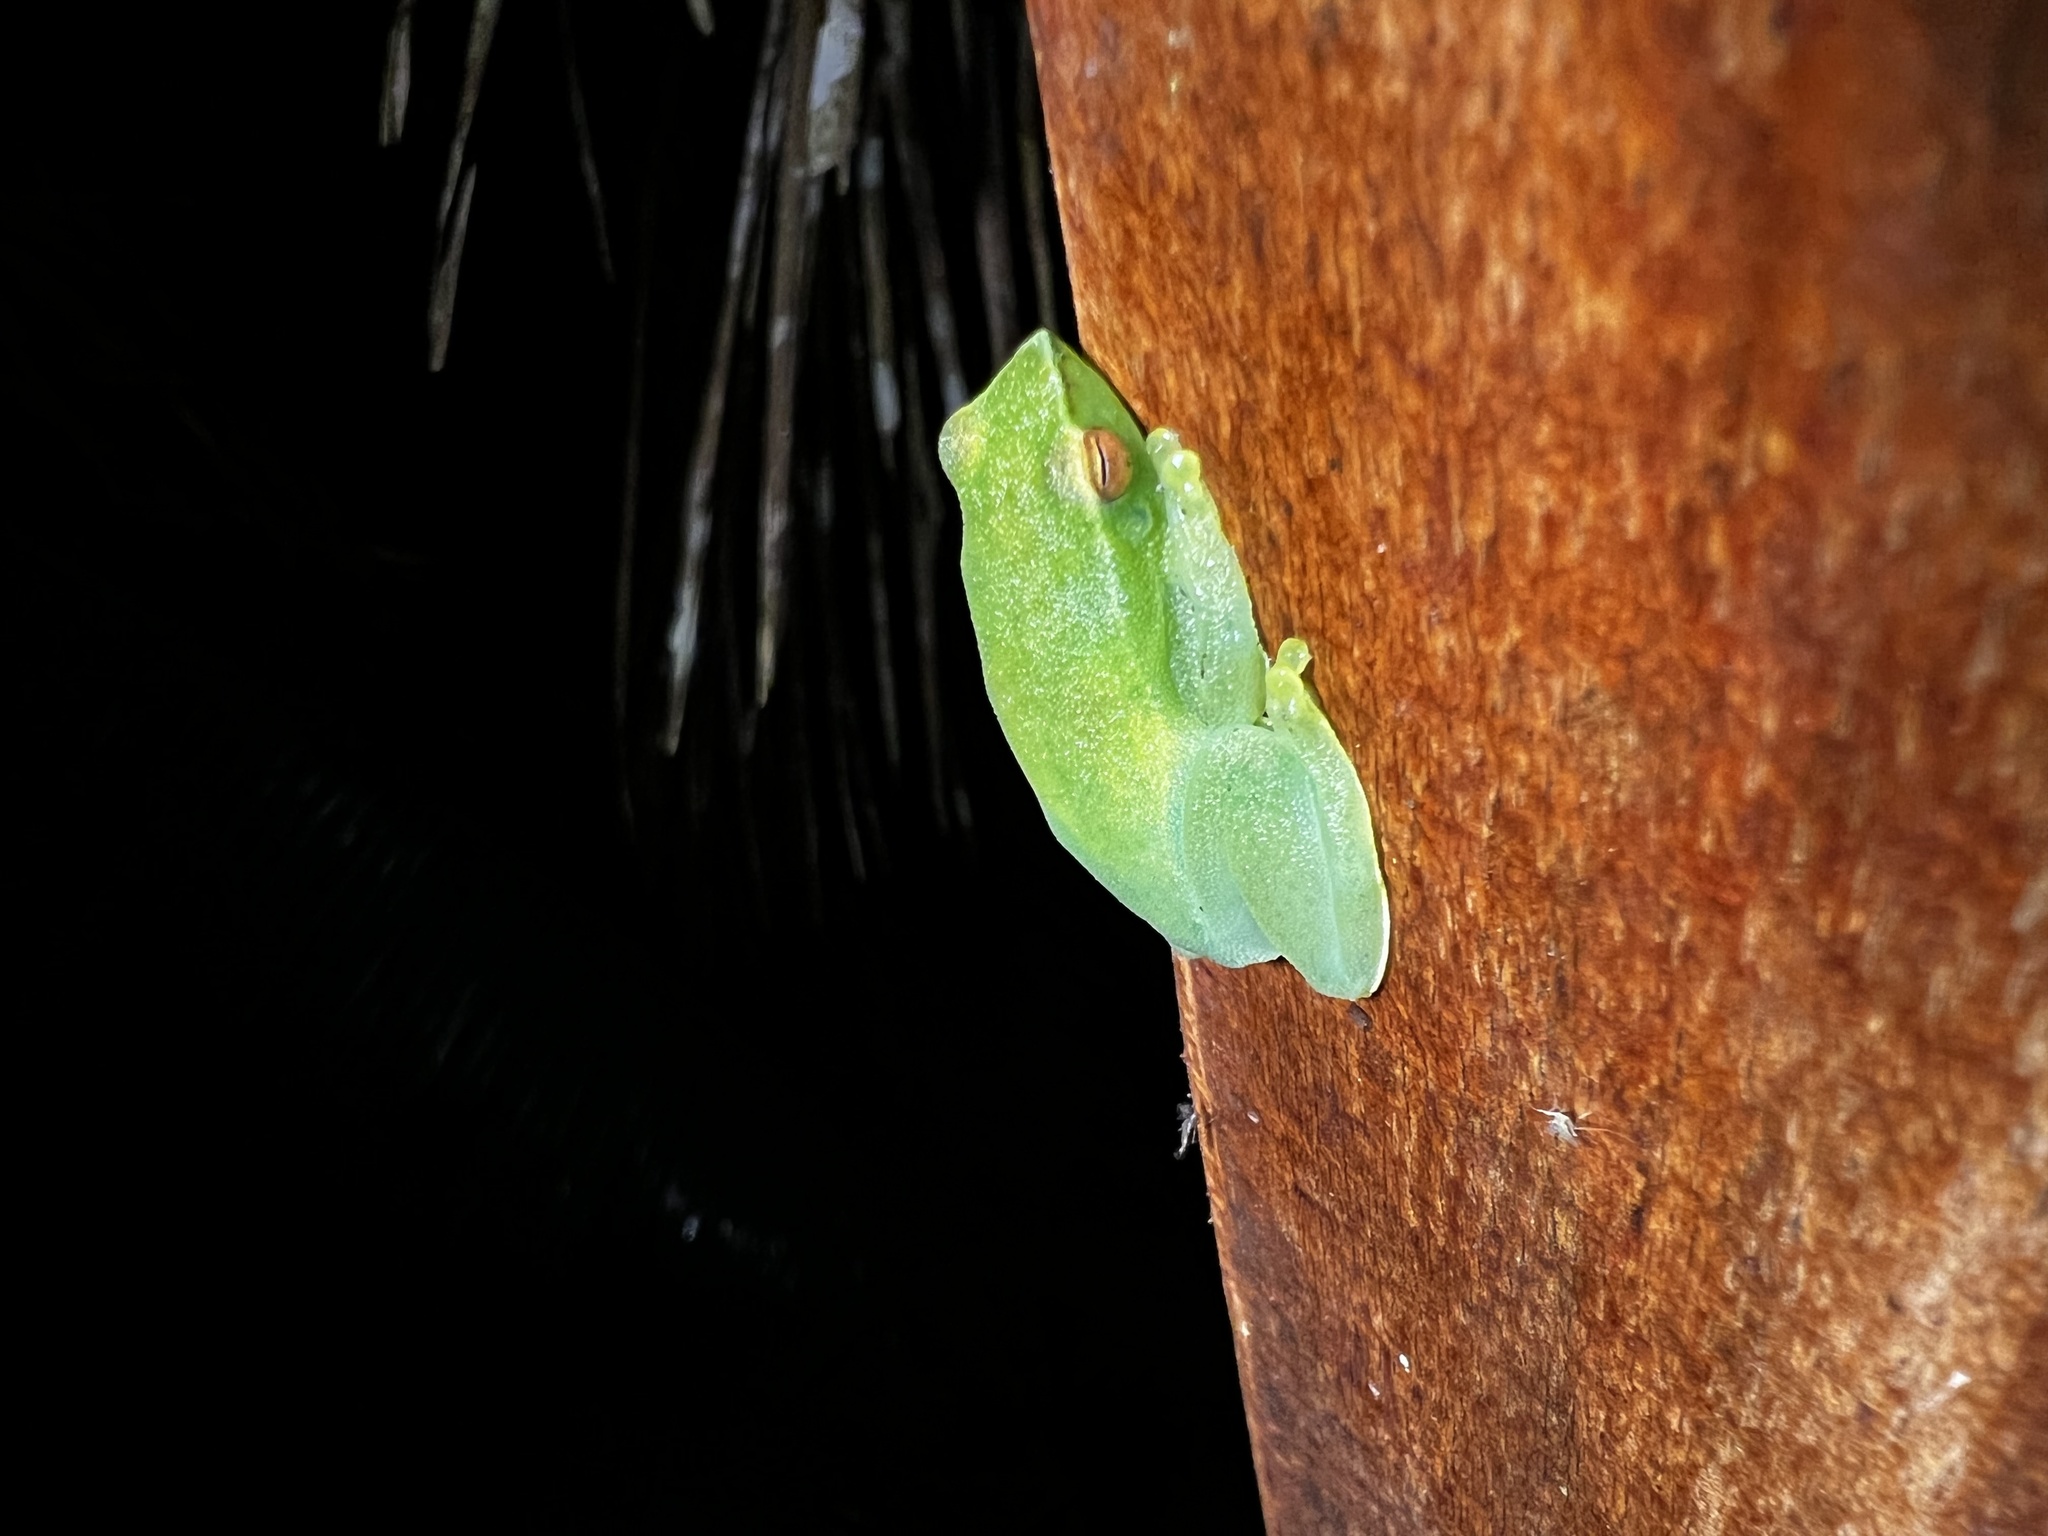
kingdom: Animalia
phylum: Chordata
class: Amphibia
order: Anura
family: Hylidae
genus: Sphaenorhynchus
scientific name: Sphaenorhynchus lacteus
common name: Orinoco lime treefrog
